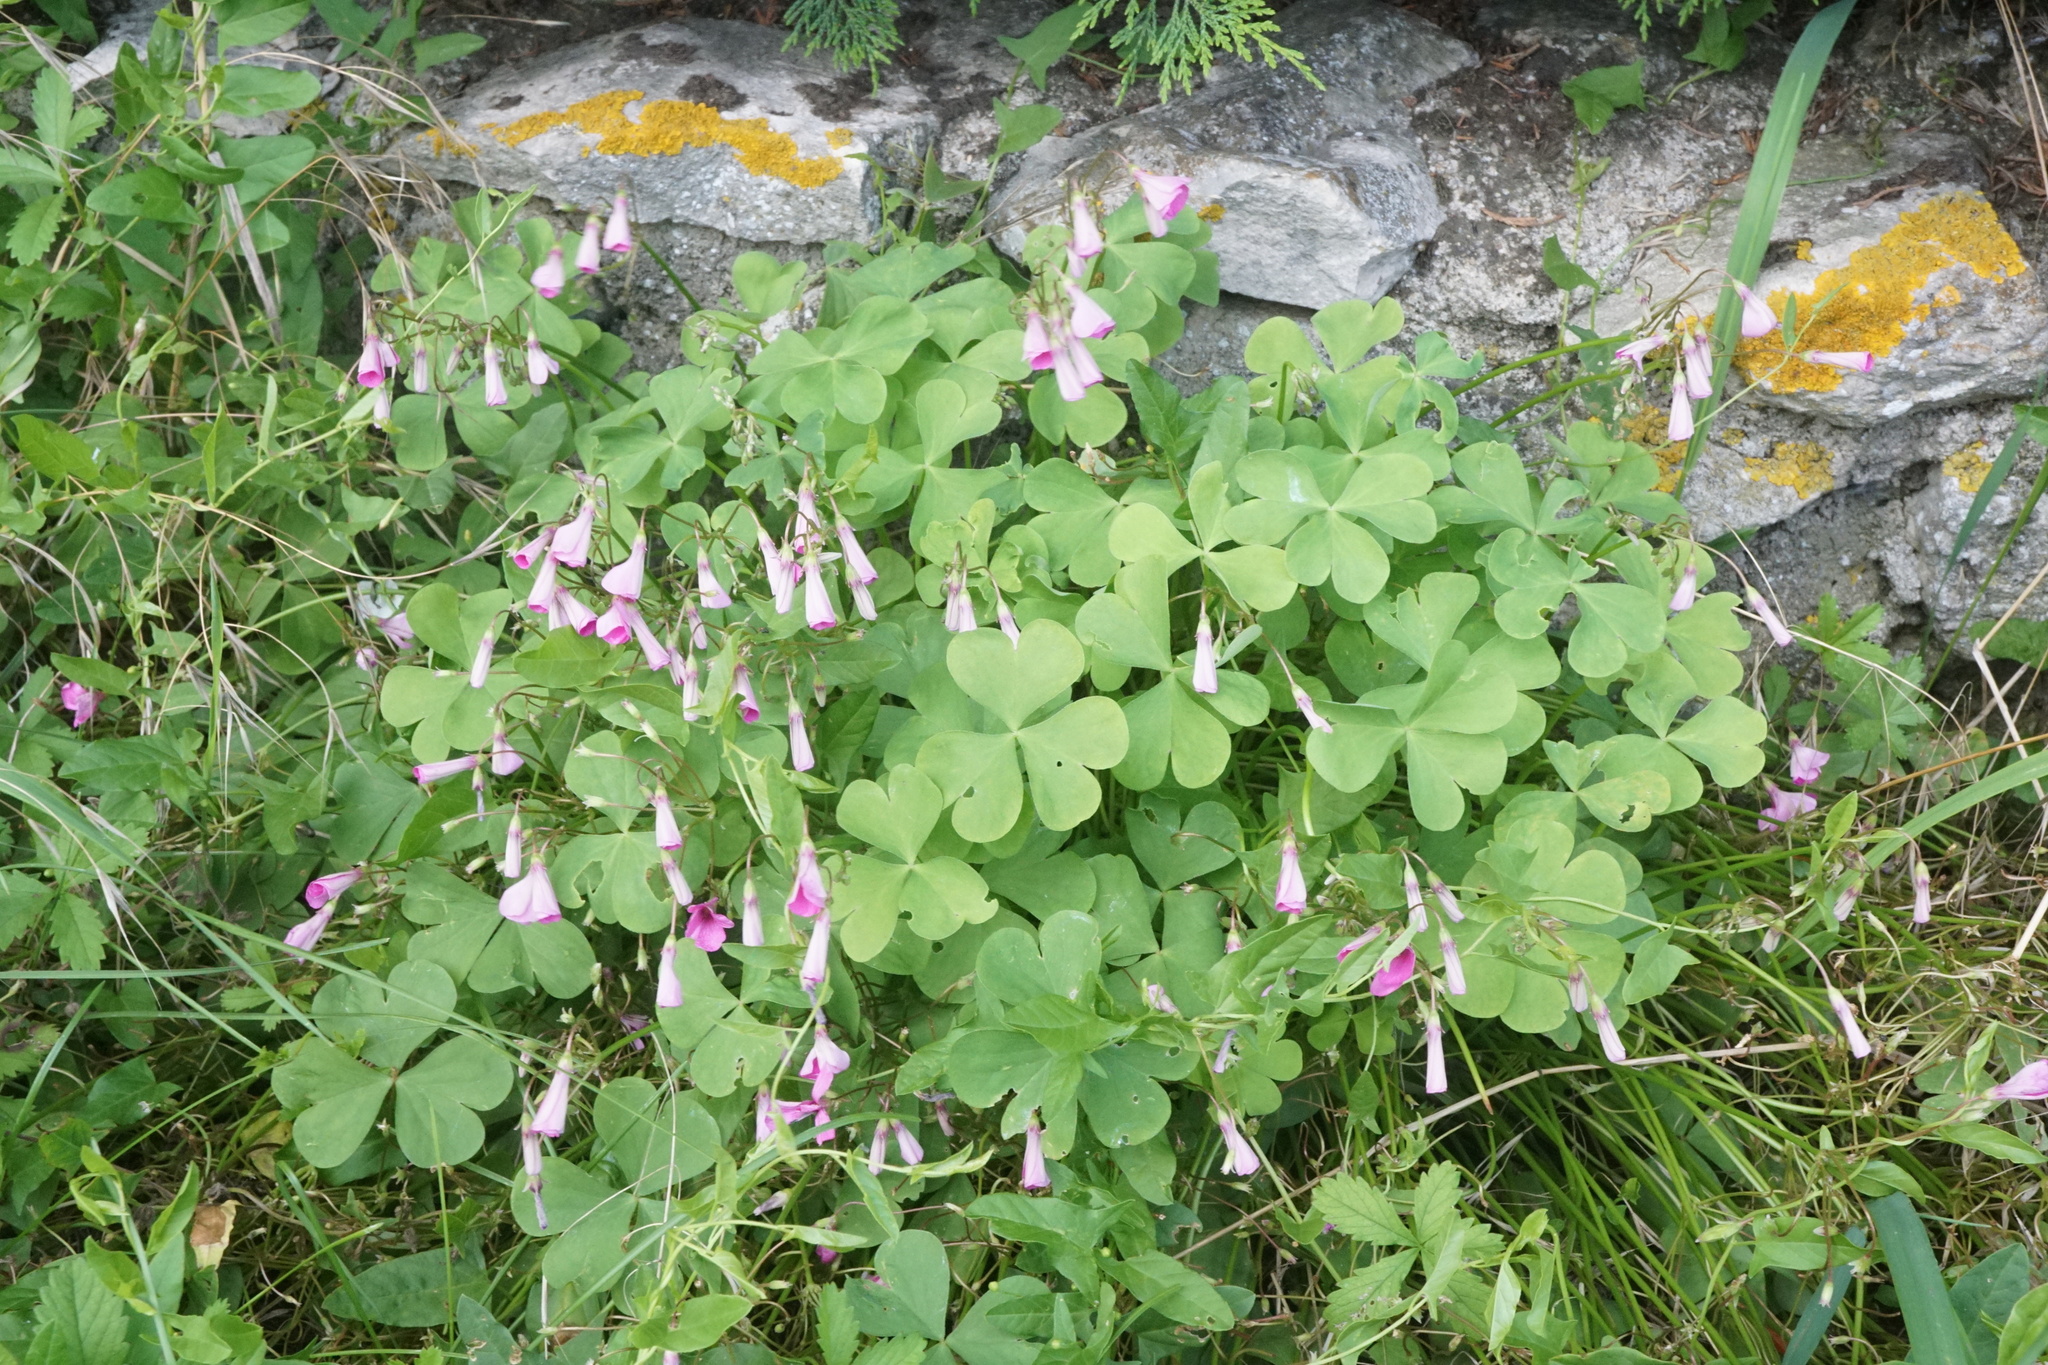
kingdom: Plantae
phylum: Tracheophyta
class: Magnoliopsida
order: Oxalidales
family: Oxalidaceae
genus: Oxalis
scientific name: Oxalis articulata
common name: Pink-sorrel
